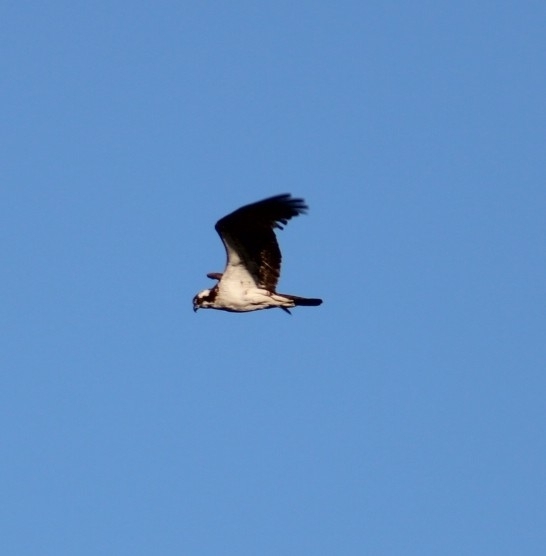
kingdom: Animalia
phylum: Chordata
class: Aves
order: Accipitriformes
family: Pandionidae
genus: Pandion
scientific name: Pandion haliaetus
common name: Osprey
